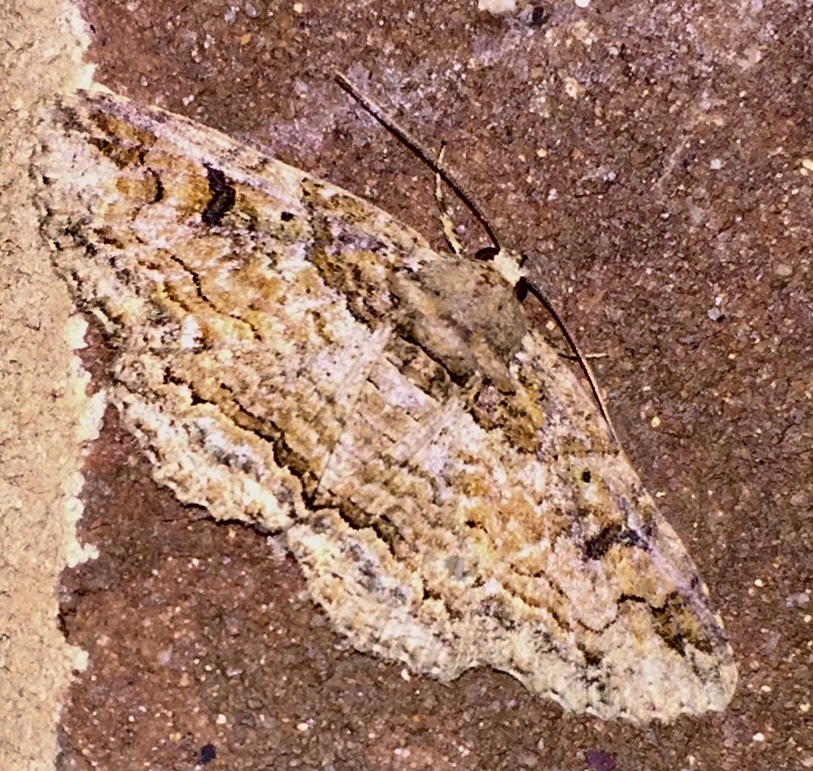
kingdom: Animalia
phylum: Arthropoda
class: Insecta
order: Lepidoptera
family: Erebidae
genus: Zale
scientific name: Zale galbanata
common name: Maple zale
